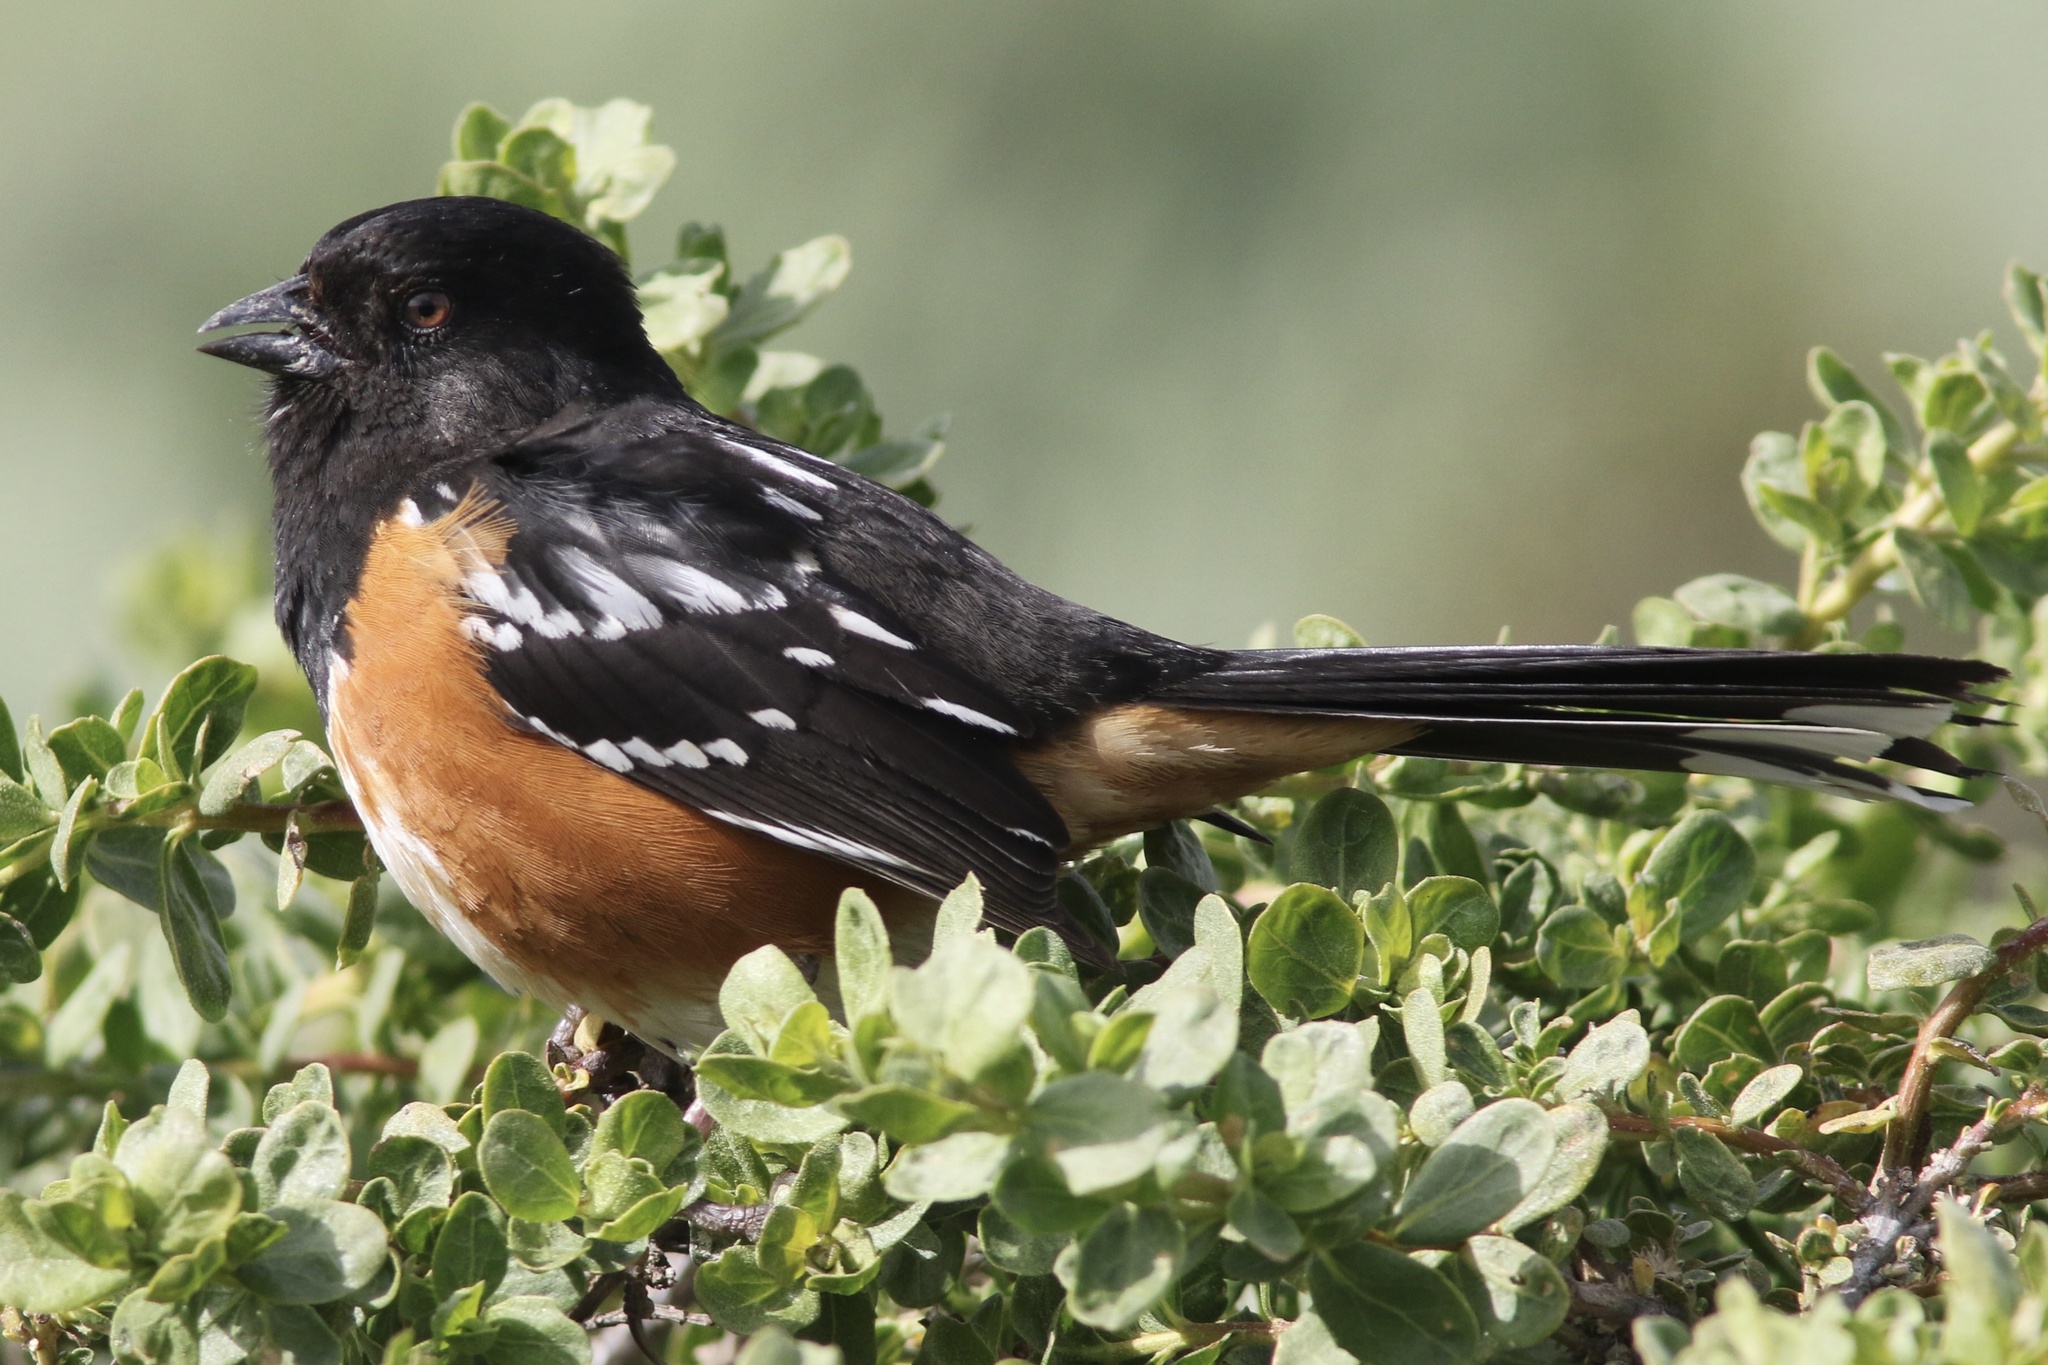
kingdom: Animalia
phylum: Chordata
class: Aves
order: Passeriformes
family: Passerellidae
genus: Pipilo
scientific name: Pipilo maculatus
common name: Spotted towhee
